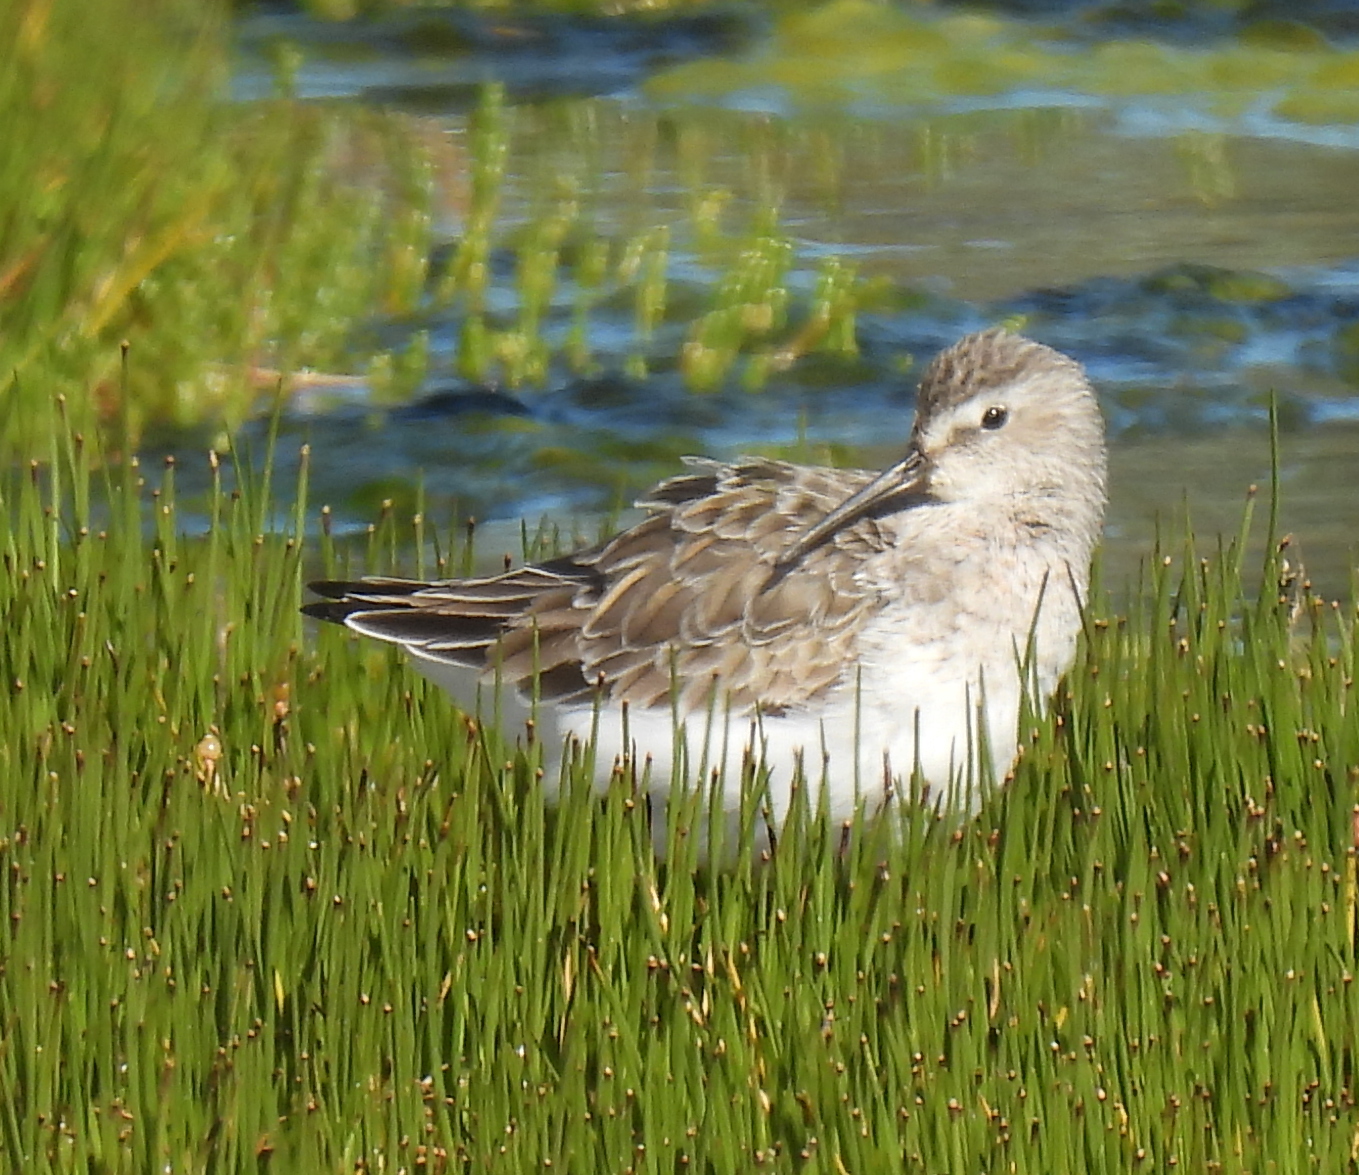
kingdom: Animalia
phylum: Chordata
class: Aves
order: Charadriiformes
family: Scolopacidae
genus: Calidris
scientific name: Calidris ferruginea
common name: Curlew sandpiper
